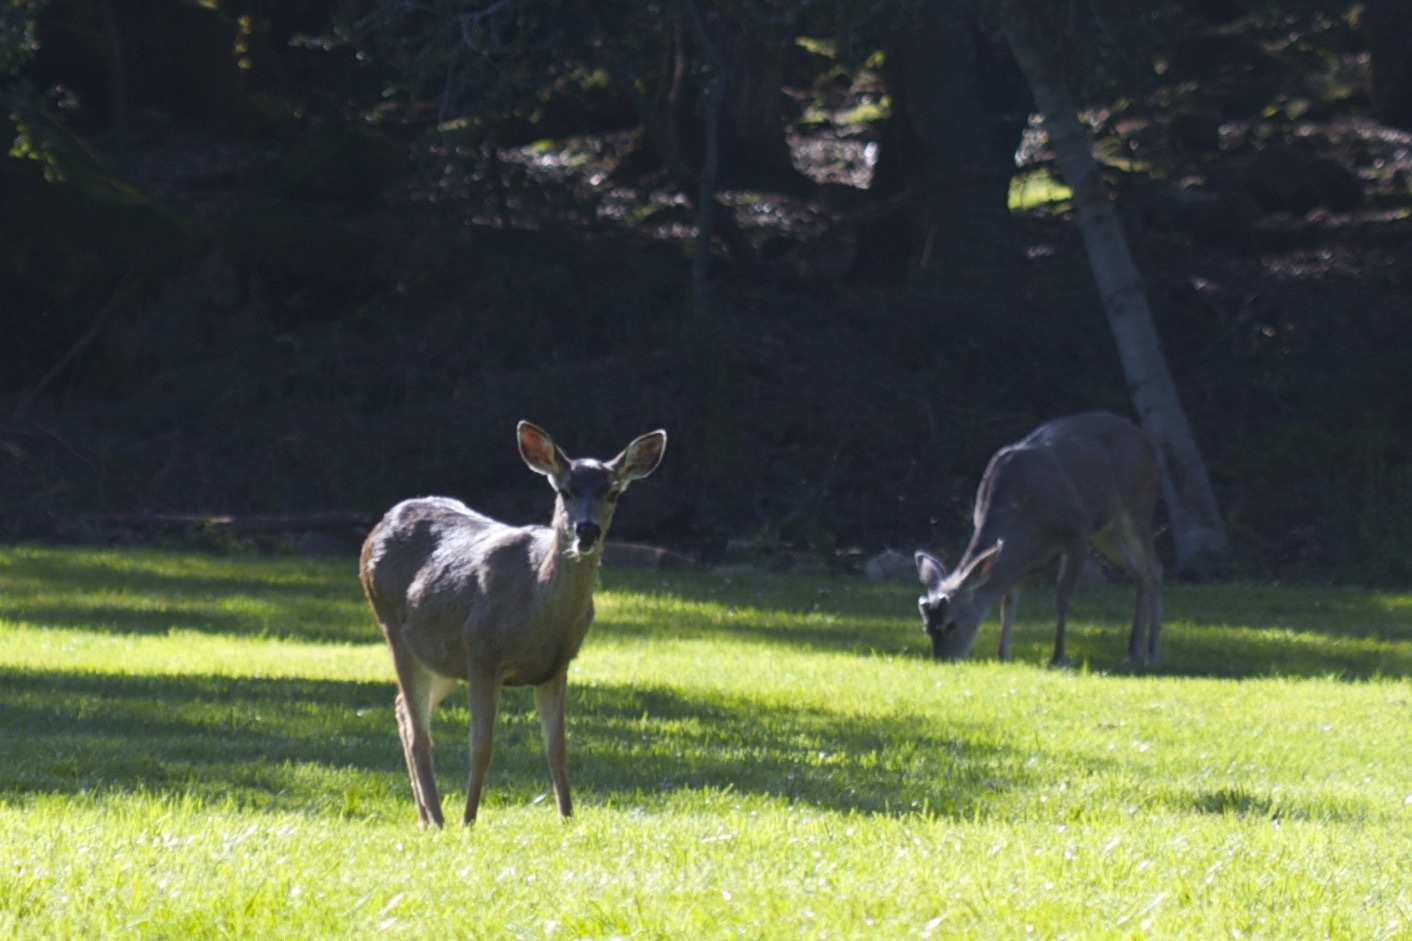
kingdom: Animalia
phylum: Chordata
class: Mammalia
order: Artiodactyla
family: Cervidae
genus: Odocoileus
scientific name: Odocoileus hemionus
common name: Mule deer
